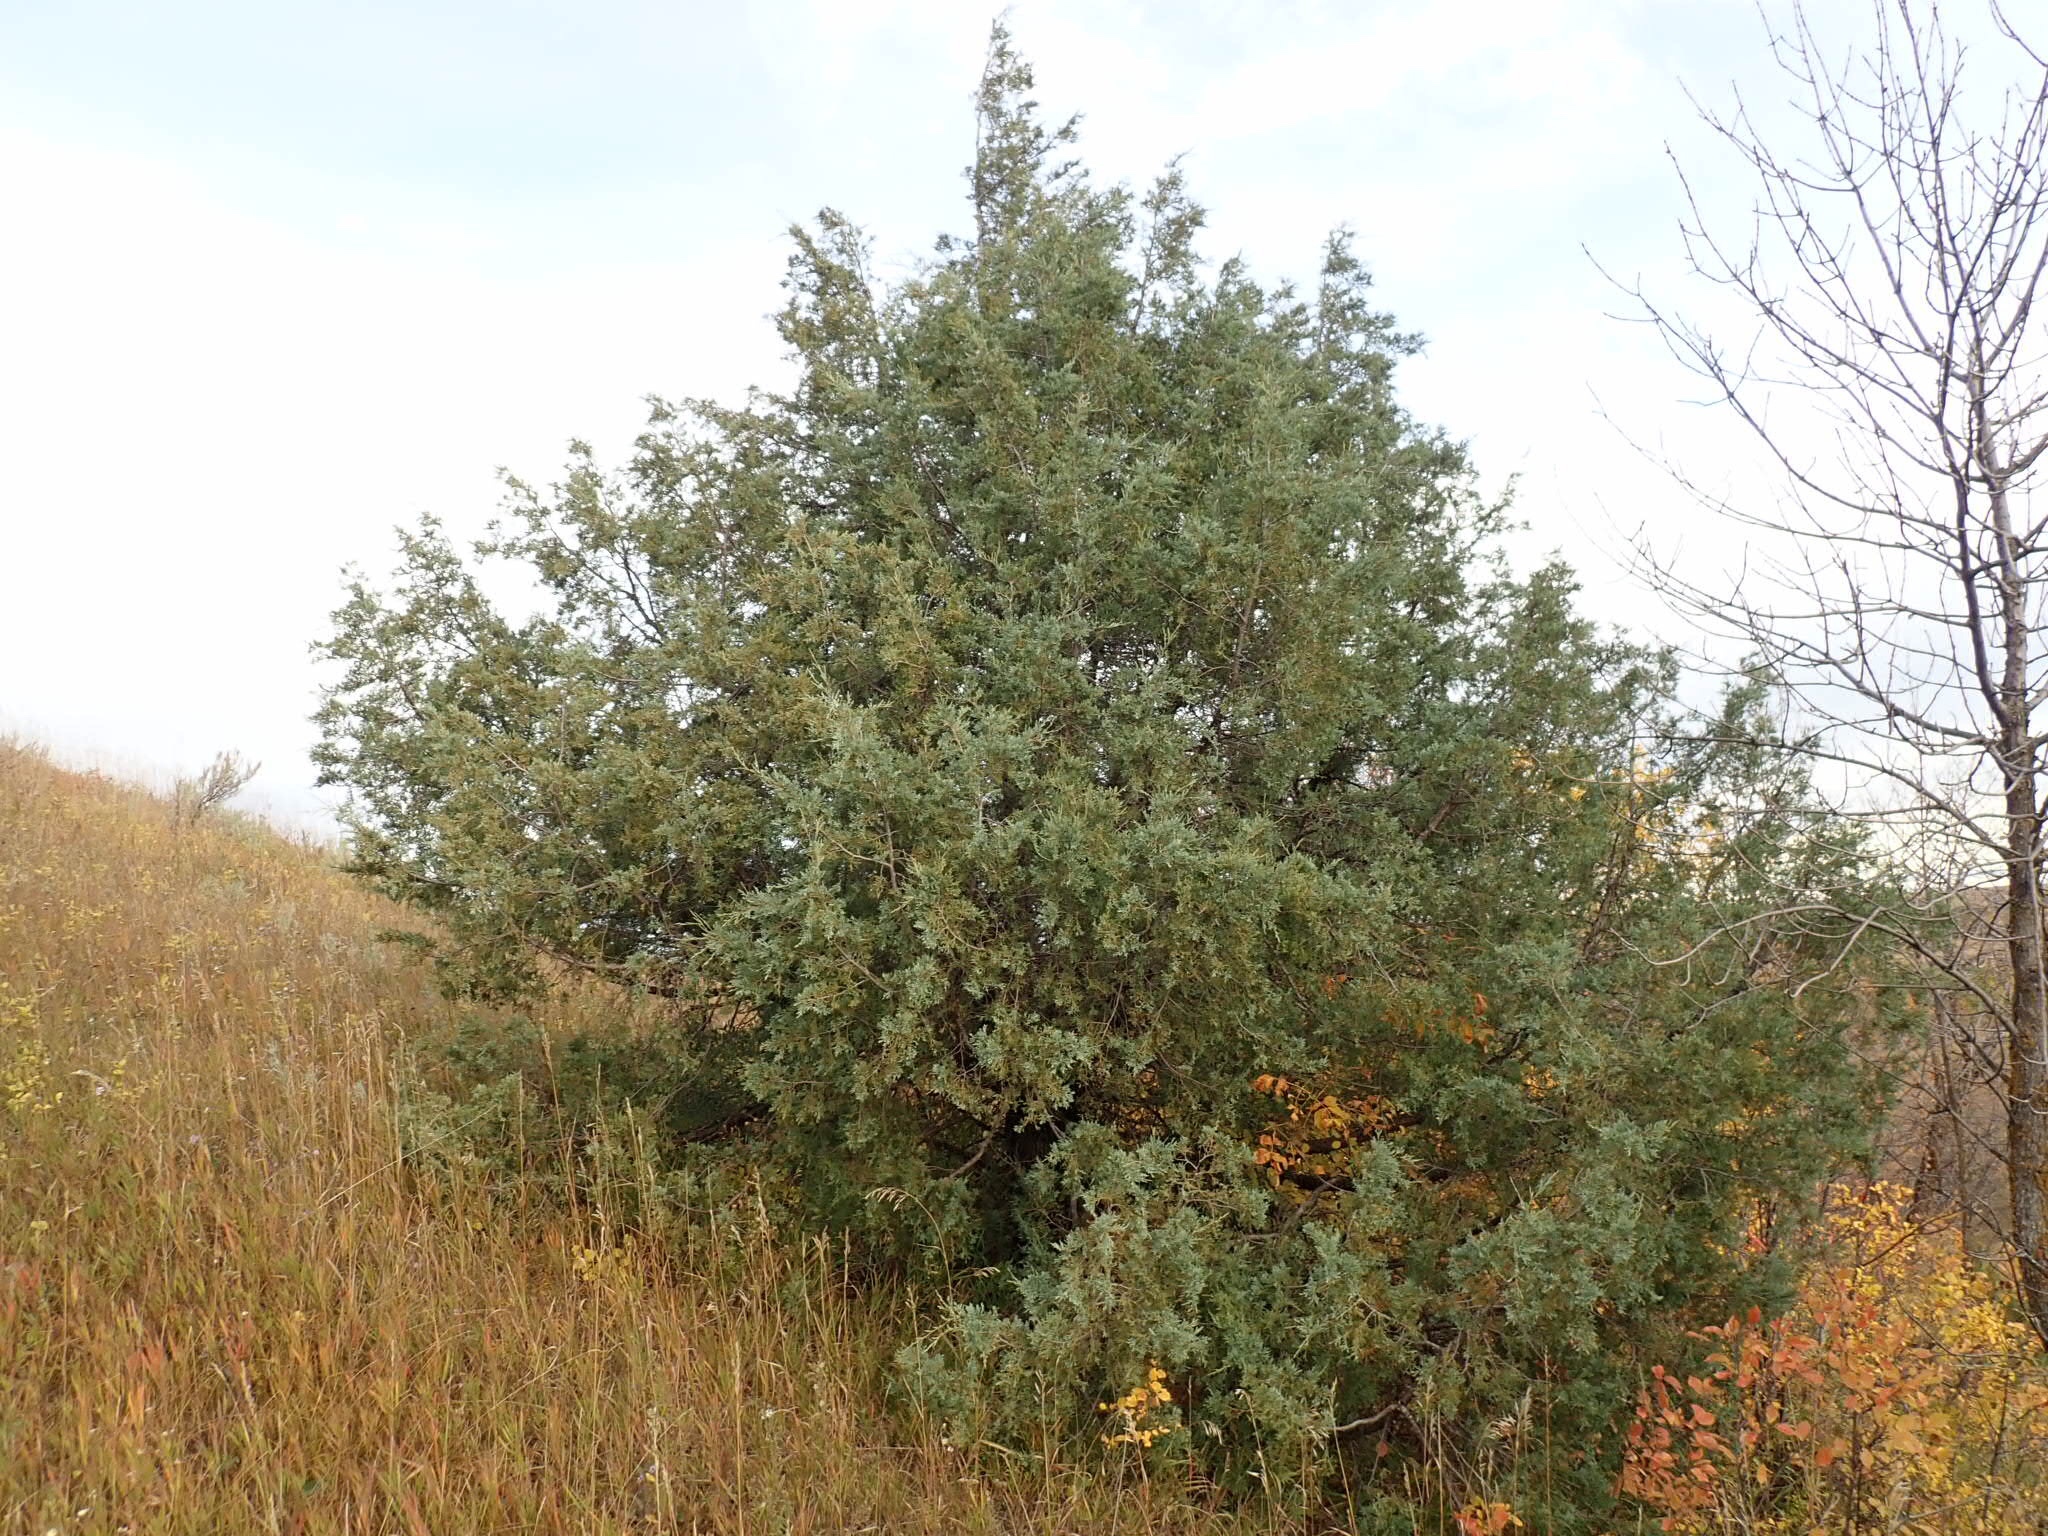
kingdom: Plantae
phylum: Tracheophyta
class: Pinopsida
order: Pinales
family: Cupressaceae
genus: Juniperus
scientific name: Juniperus scopulorum
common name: Rocky mountain juniper
